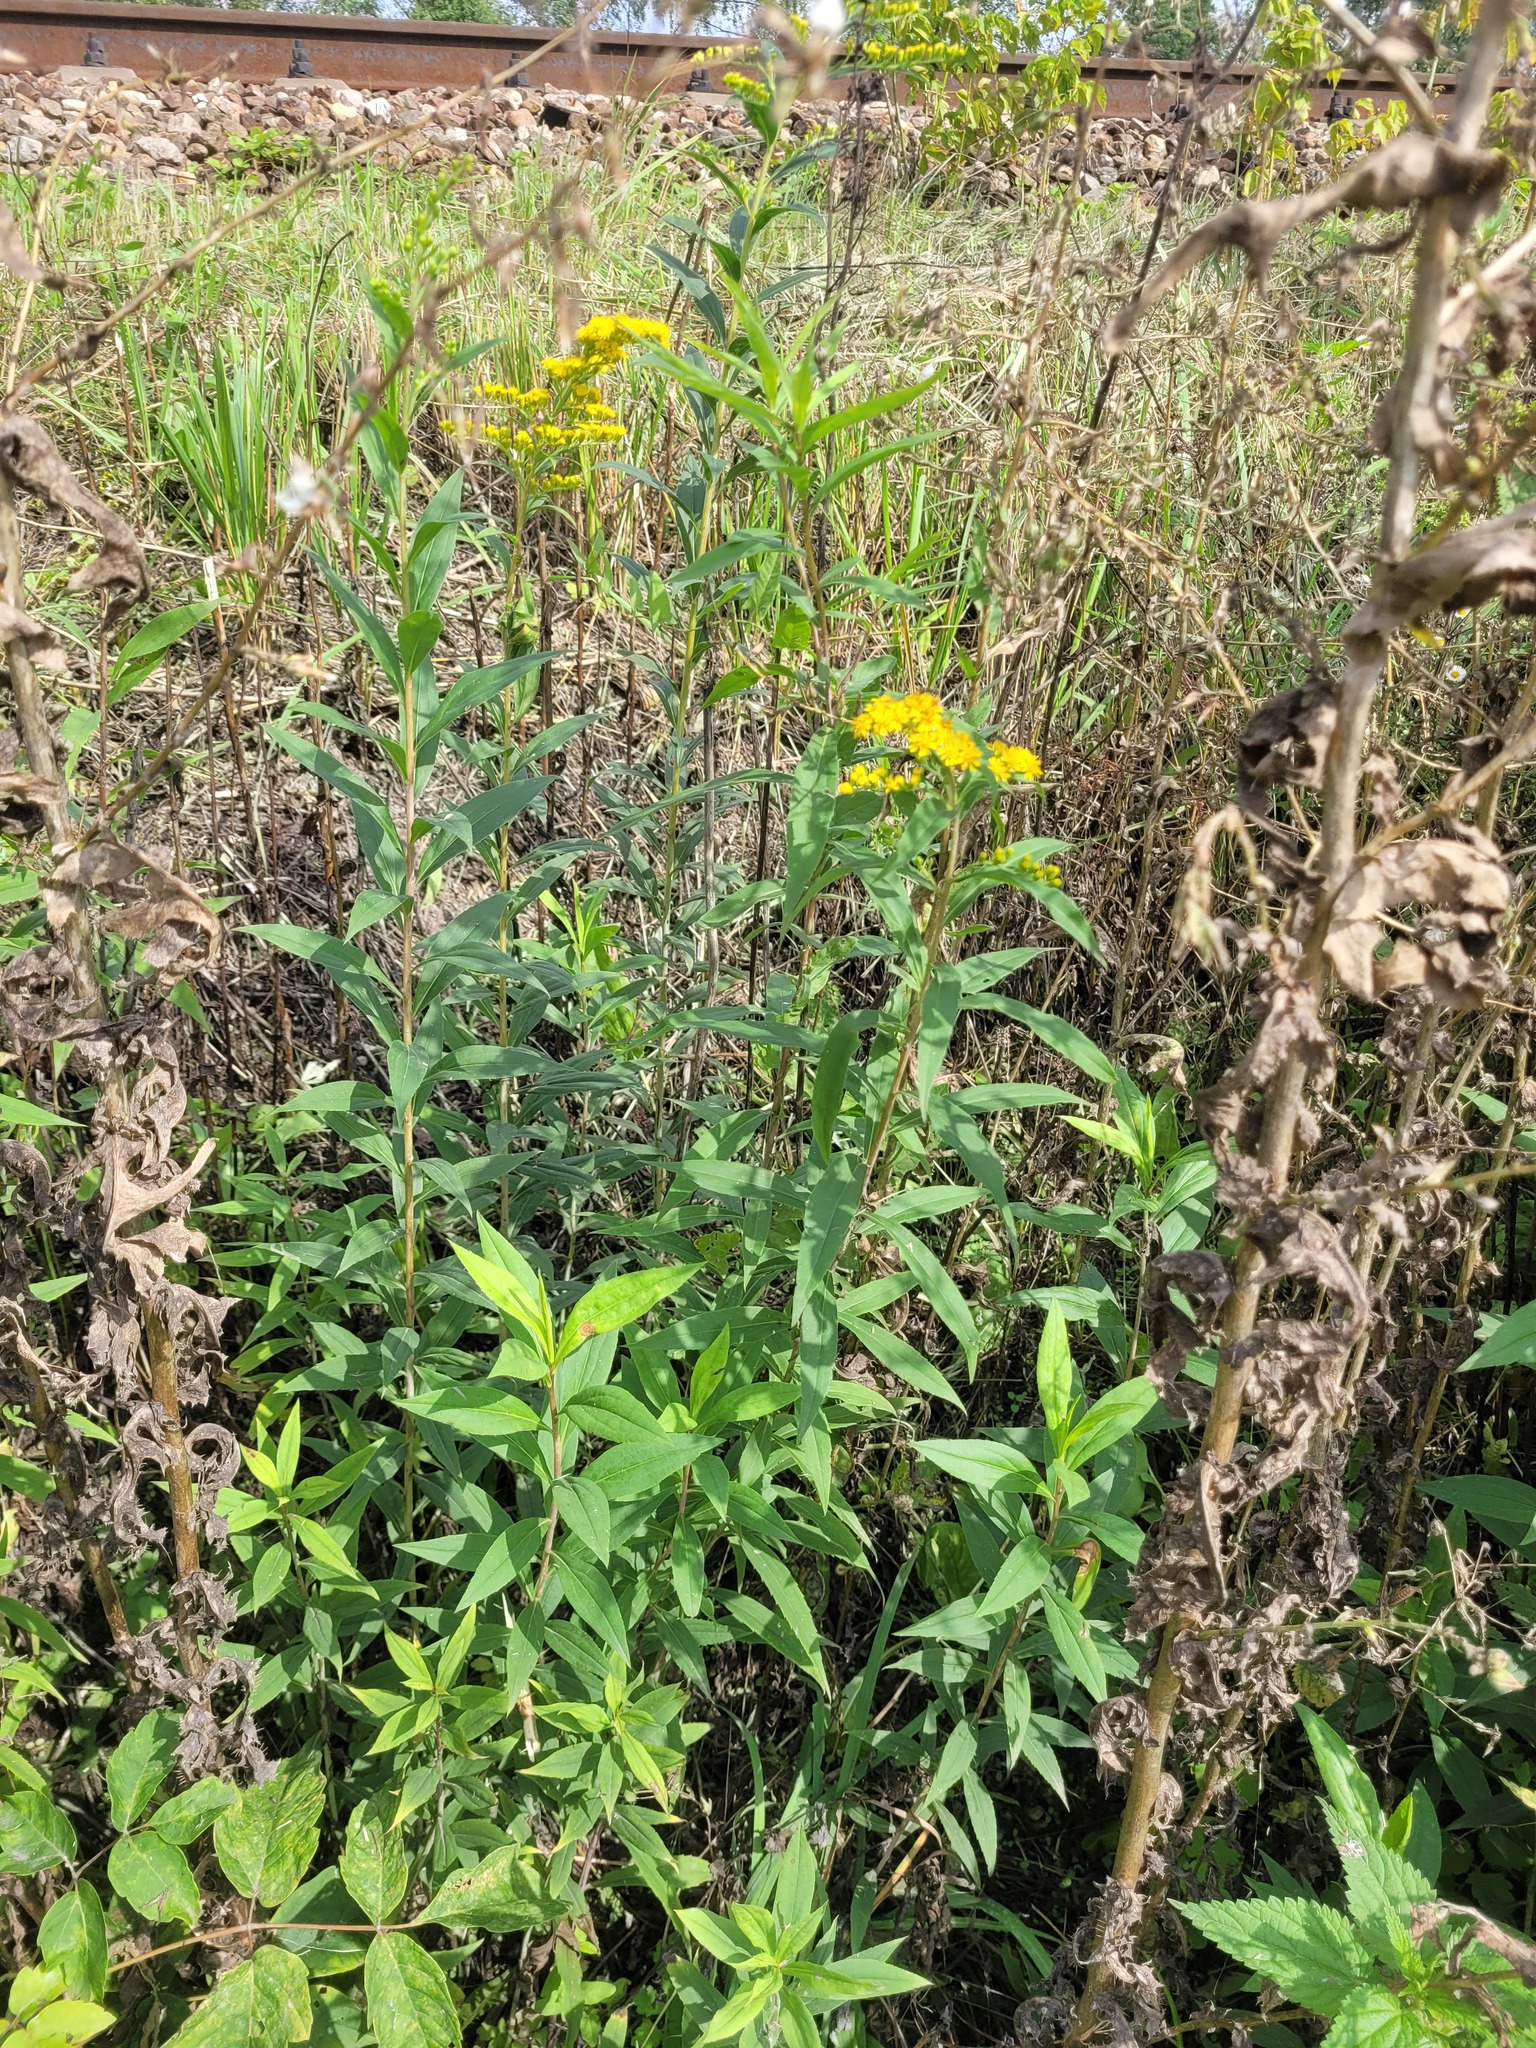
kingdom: Plantae
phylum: Tracheophyta
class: Magnoliopsida
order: Asterales
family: Asteraceae
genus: Solidago
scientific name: Solidago gigantea
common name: Giant goldenrod
